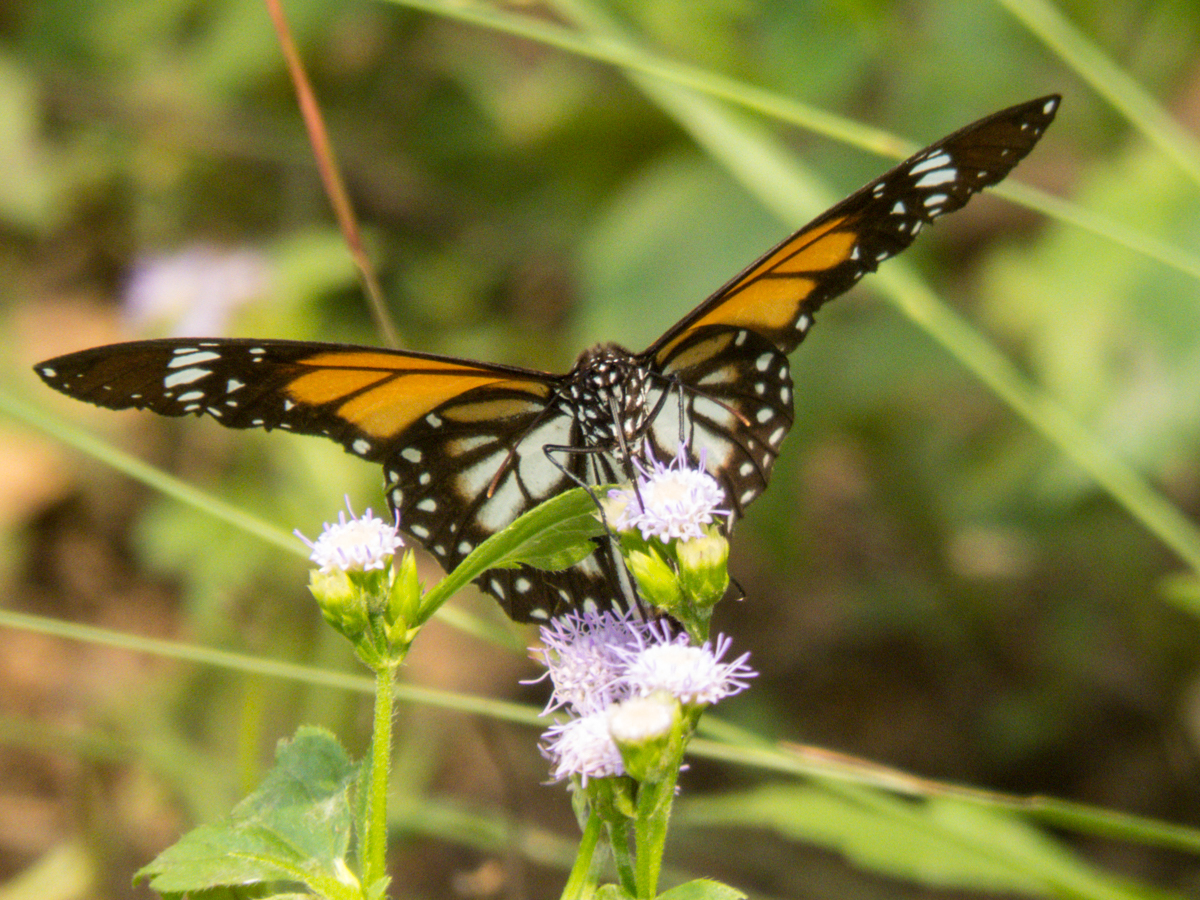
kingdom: Animalia
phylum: Arthropoda
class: Insecta
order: Lepidoptera
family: Nymphalidae
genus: Danaus
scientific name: Danaus melanippus
